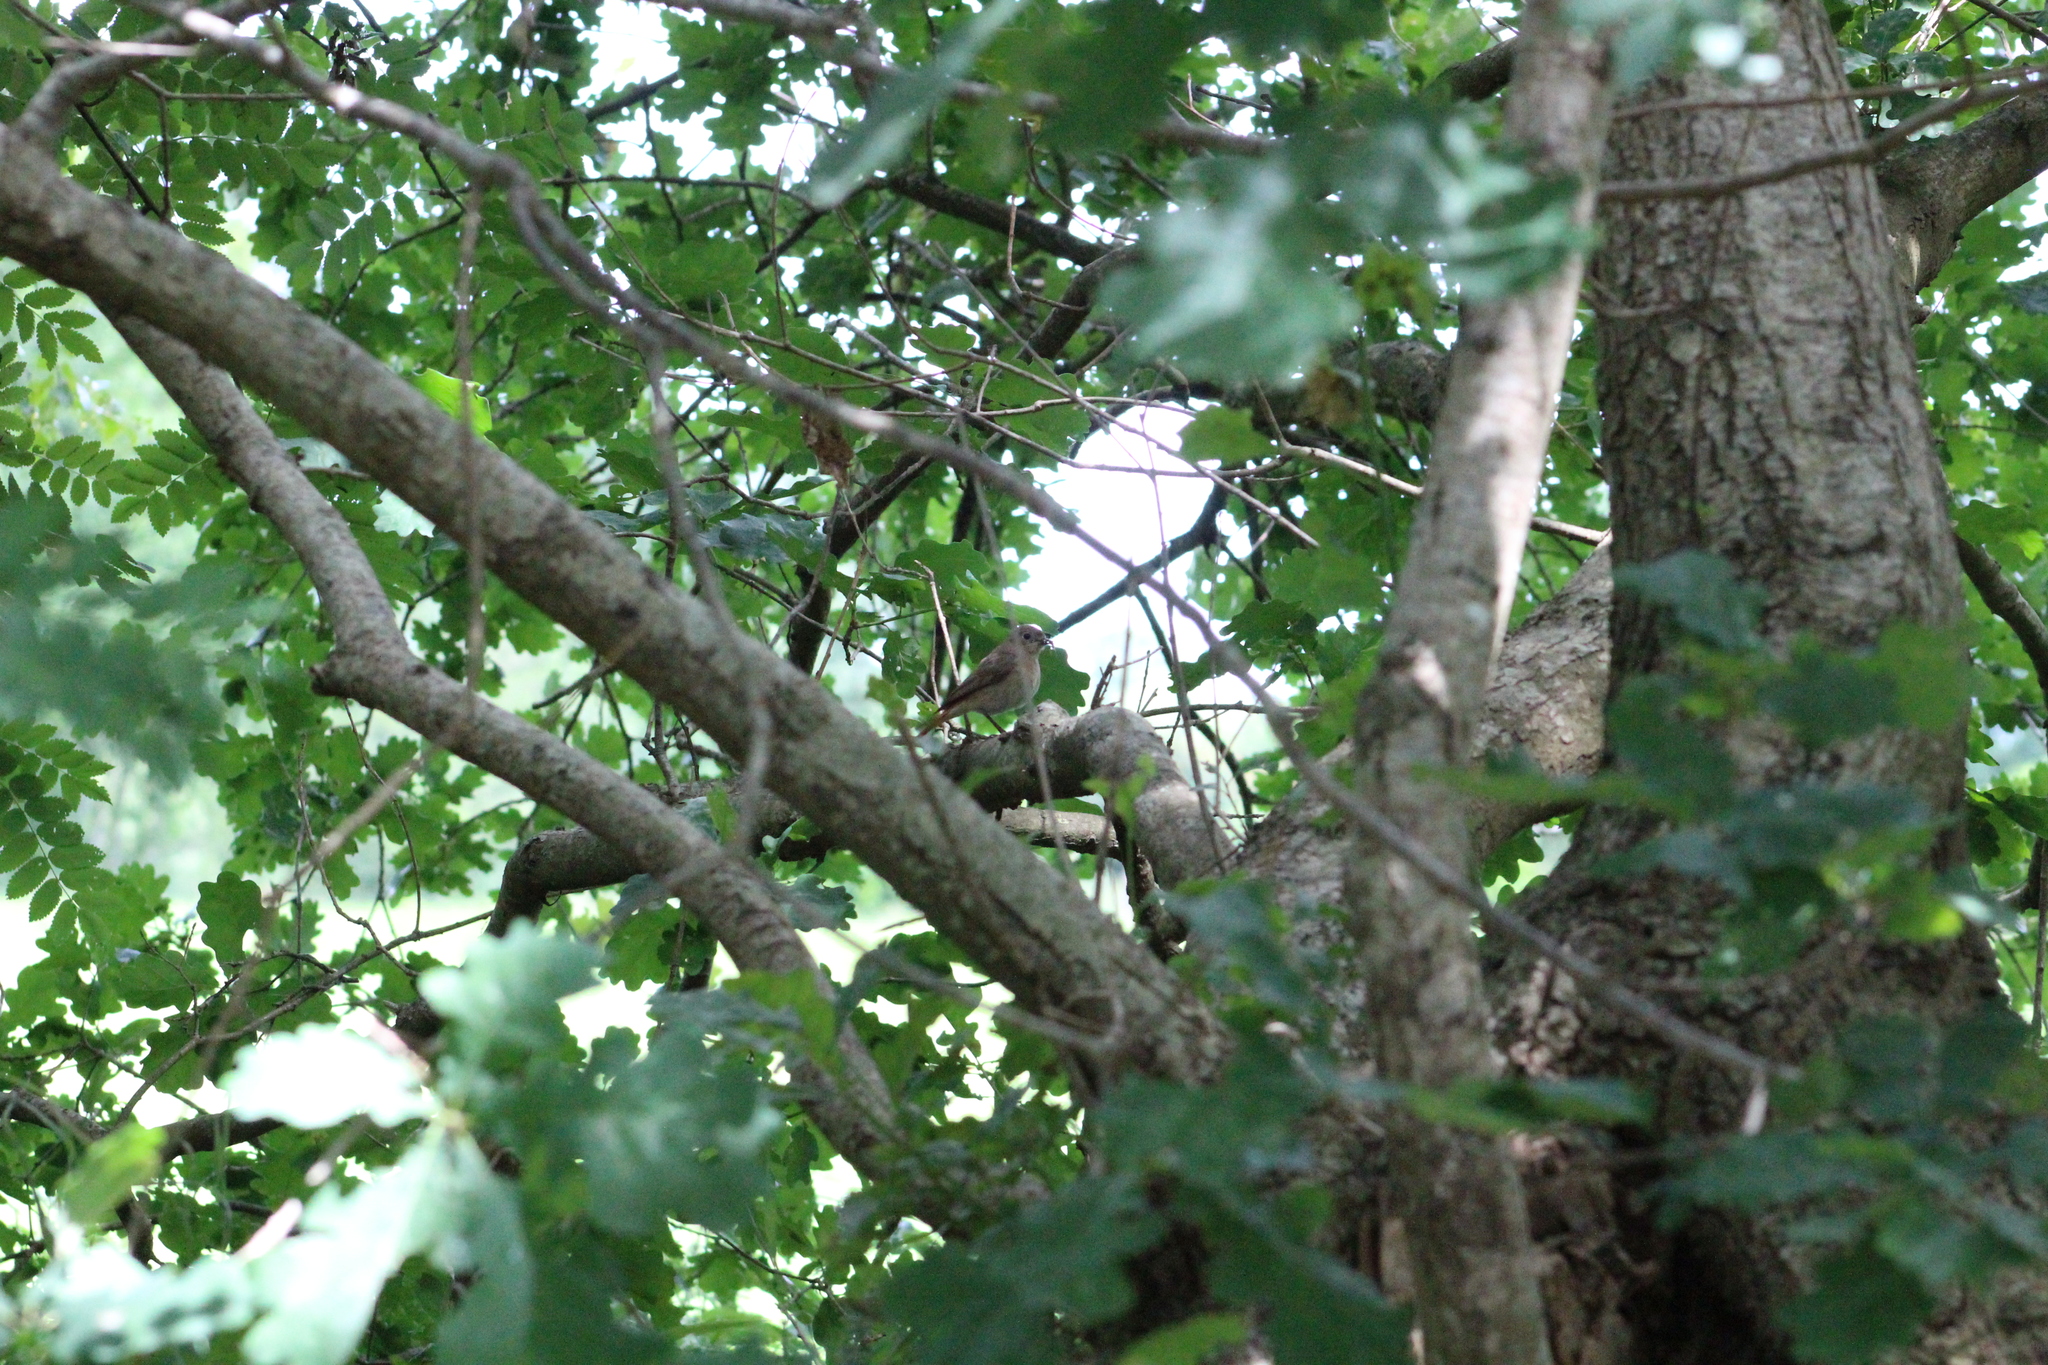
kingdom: Animalia
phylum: Chordata
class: Aves
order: Passeriformes
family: Muscicapidae
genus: Phoenicurus
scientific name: Phoenicurus phoenicurus
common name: Common redstart
